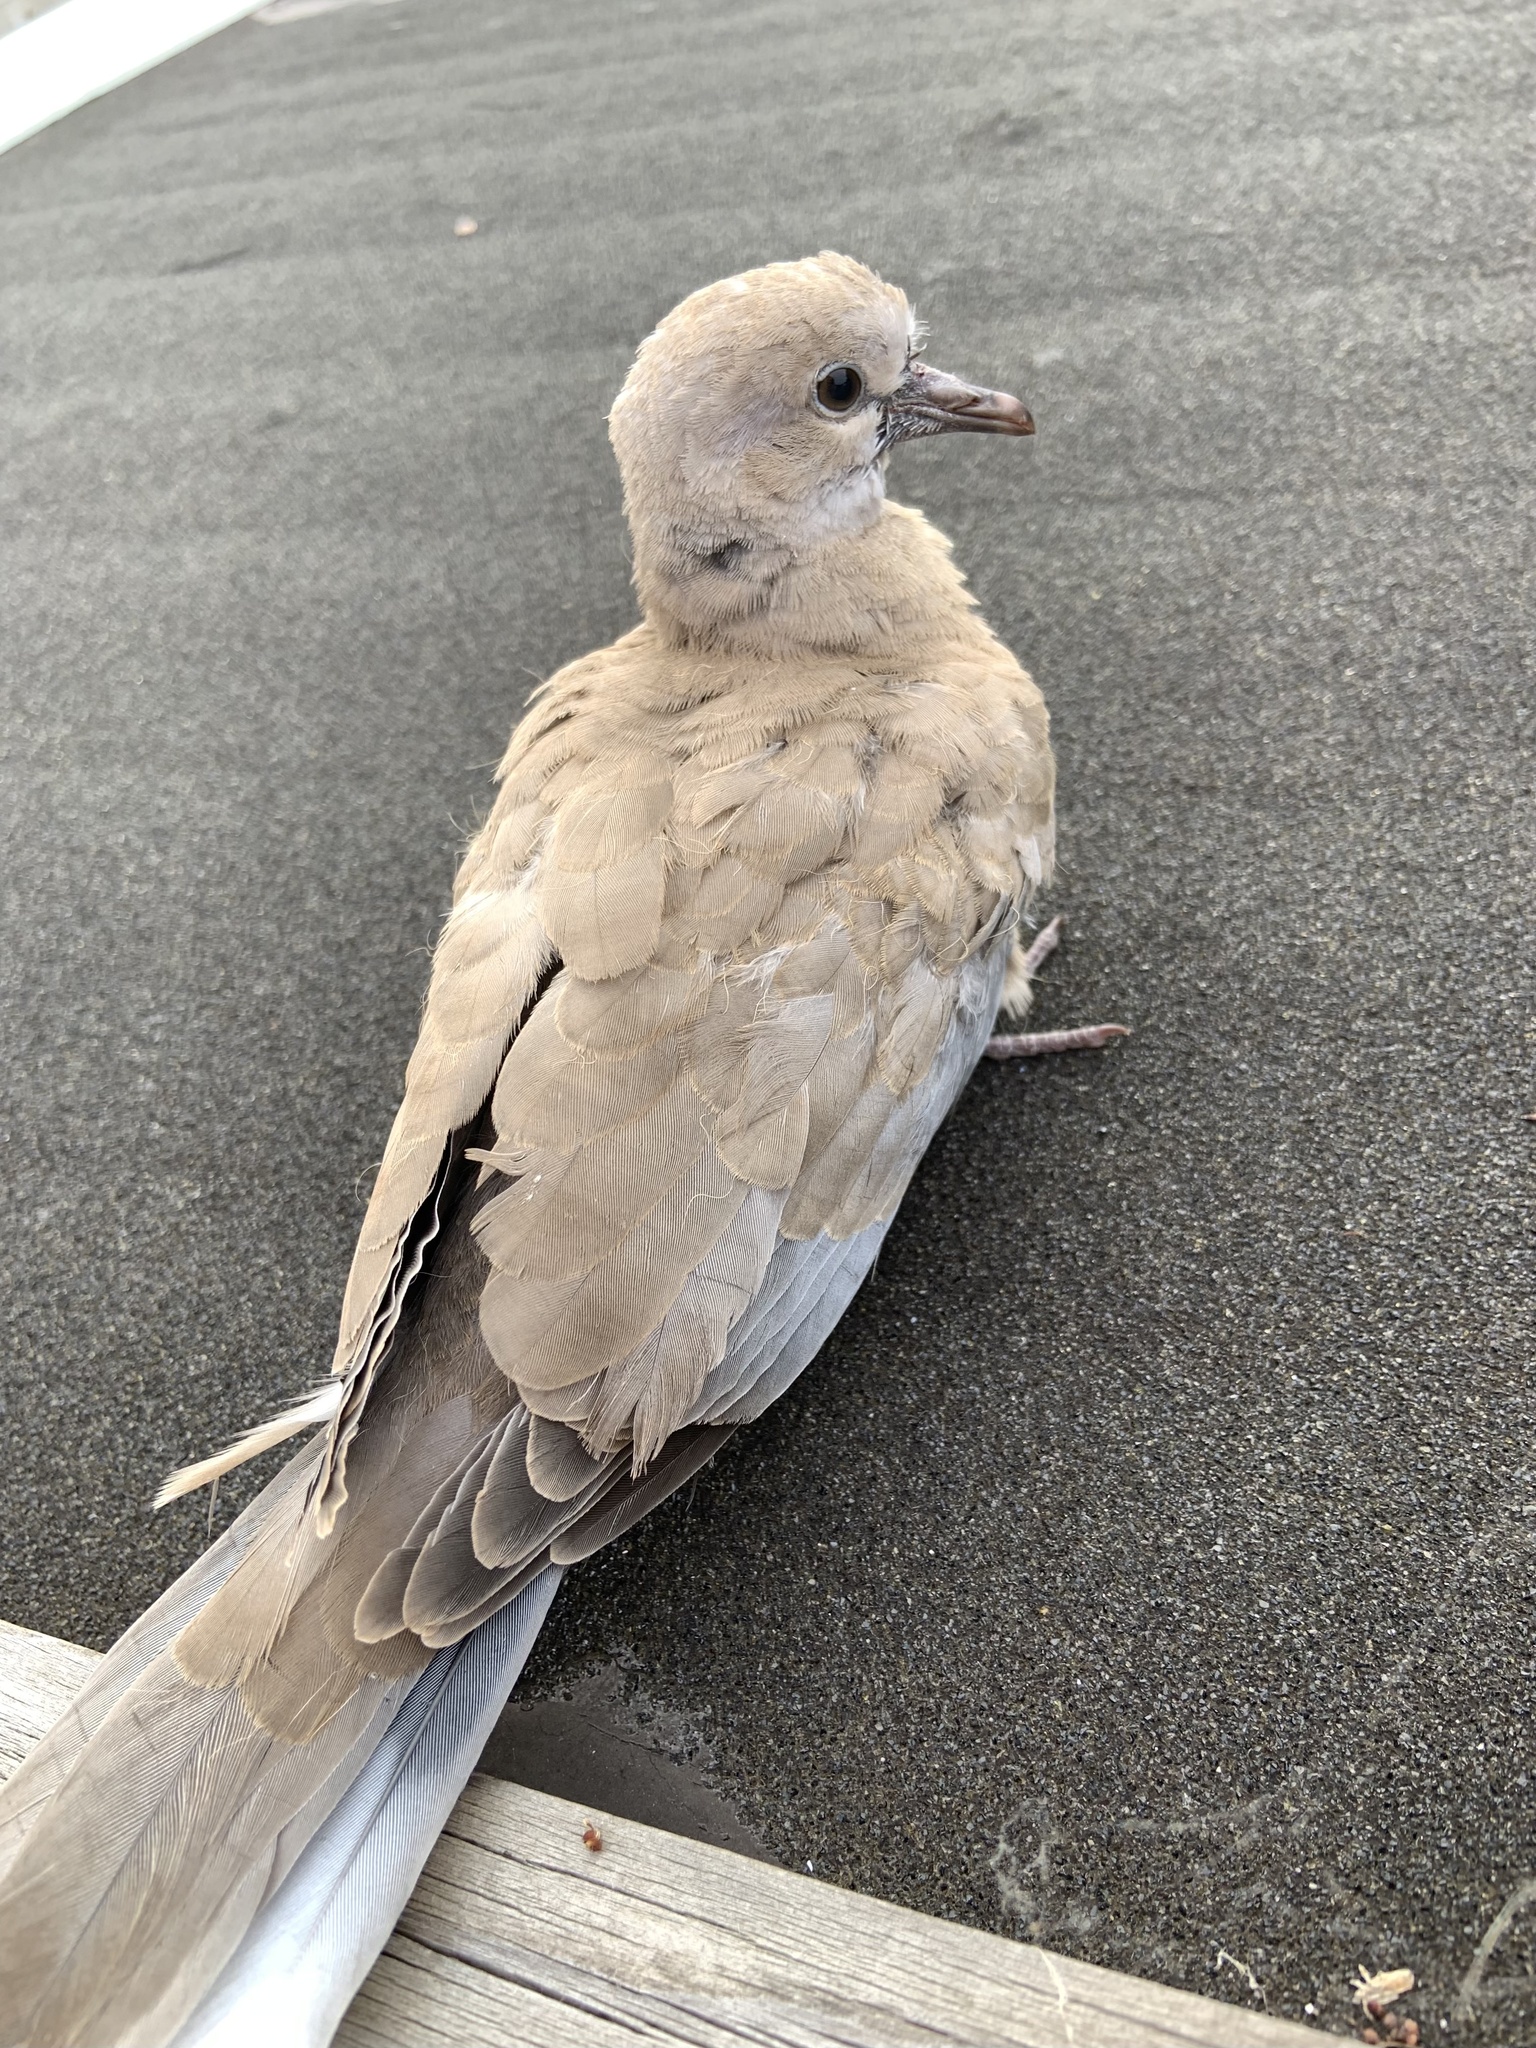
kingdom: Animalia
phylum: Chordata
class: Aves
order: Columbiformes
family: Columbidae
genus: Streptopelia
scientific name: Streptopelia decaocto
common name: Eurasian collared dove
